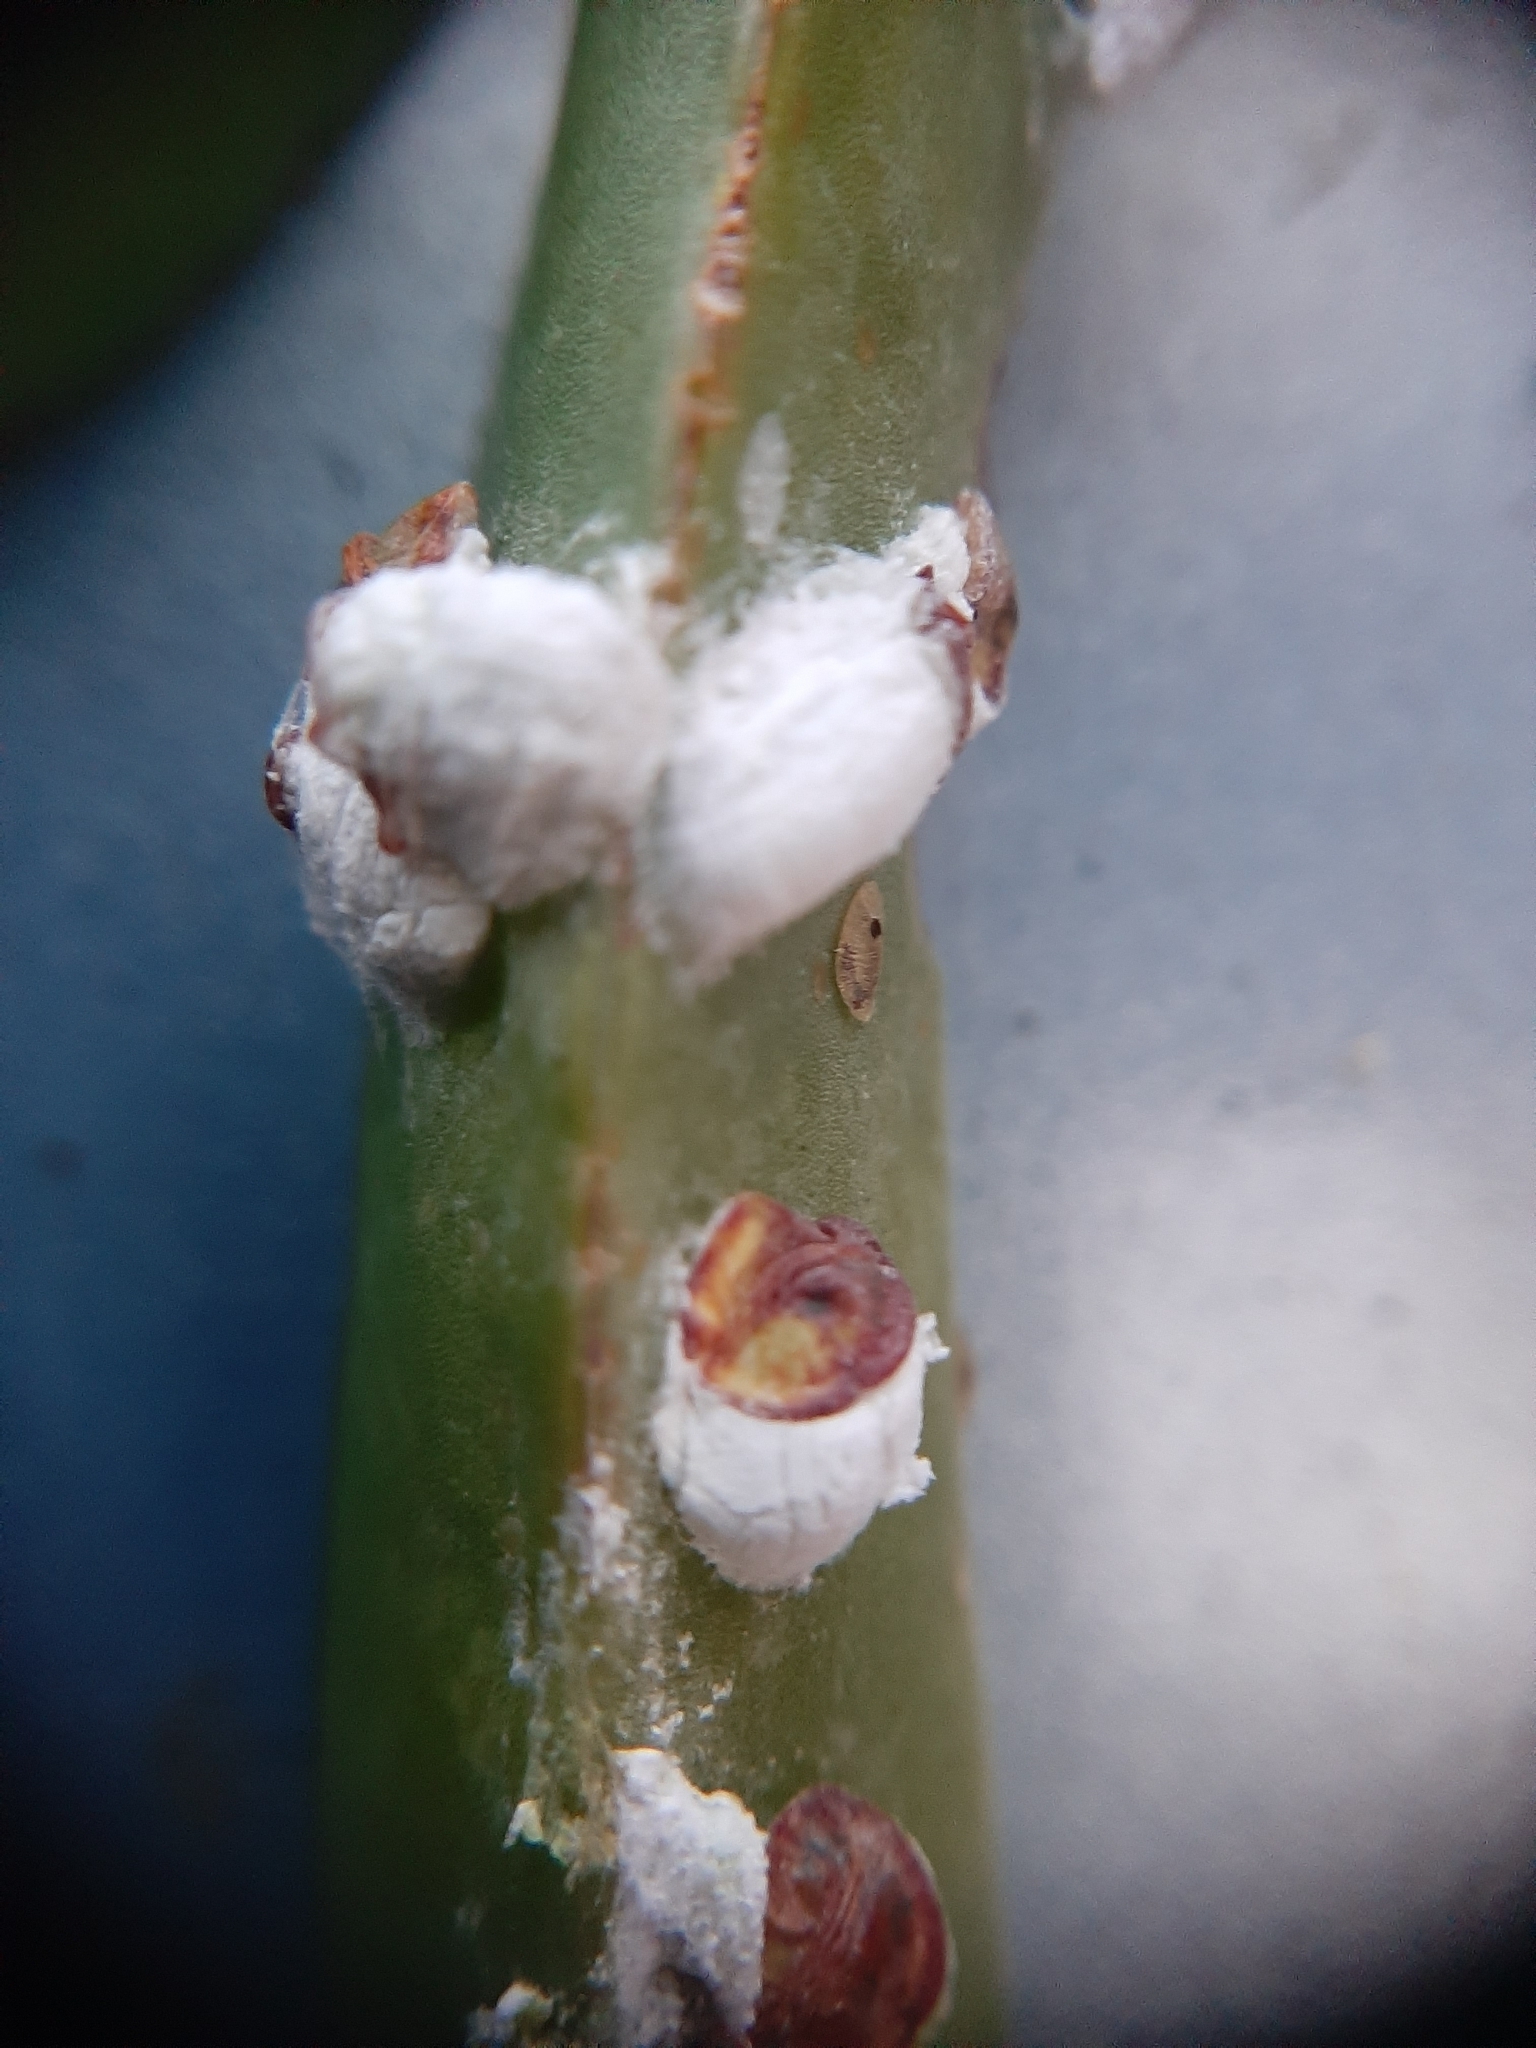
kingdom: Animalia
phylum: Arthropoda
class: Insecta
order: Hemiptera
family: Coccidae
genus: Pulvinariella
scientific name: Pulvinariella mesembryanthemi
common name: Cottony pigface scale
